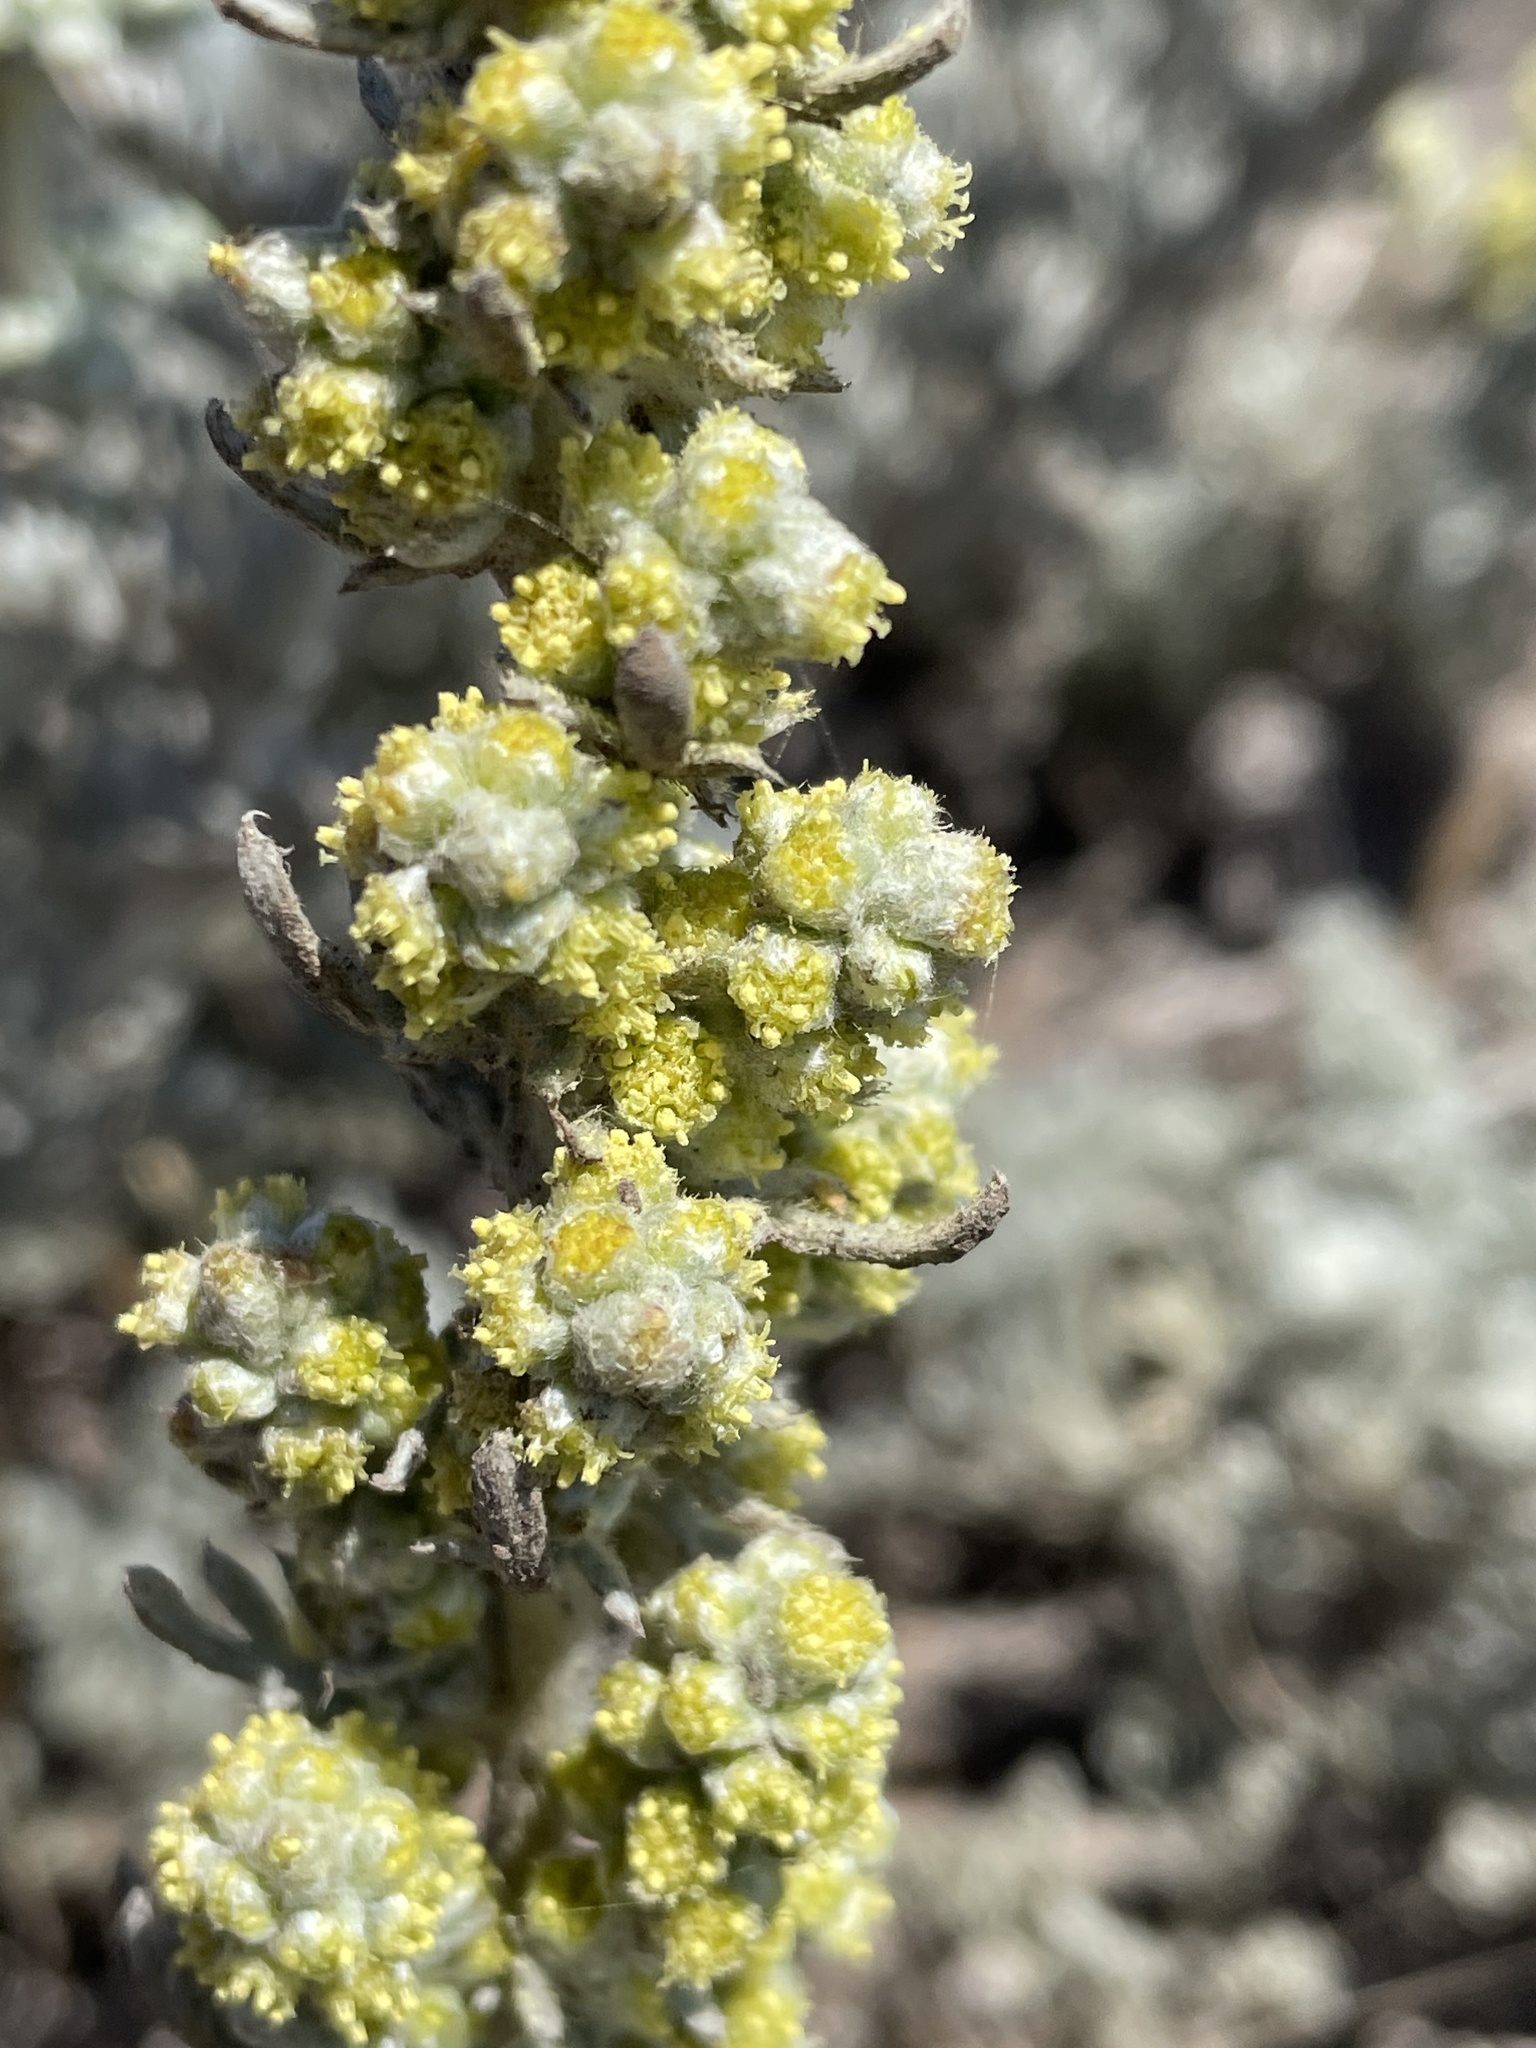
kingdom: Plantae
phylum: Tracheophyta
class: Magnoliopsida
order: Asterales
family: Asteraceae
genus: Artemisia
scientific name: Artemisia pycnocephala
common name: Coastal sagewort
